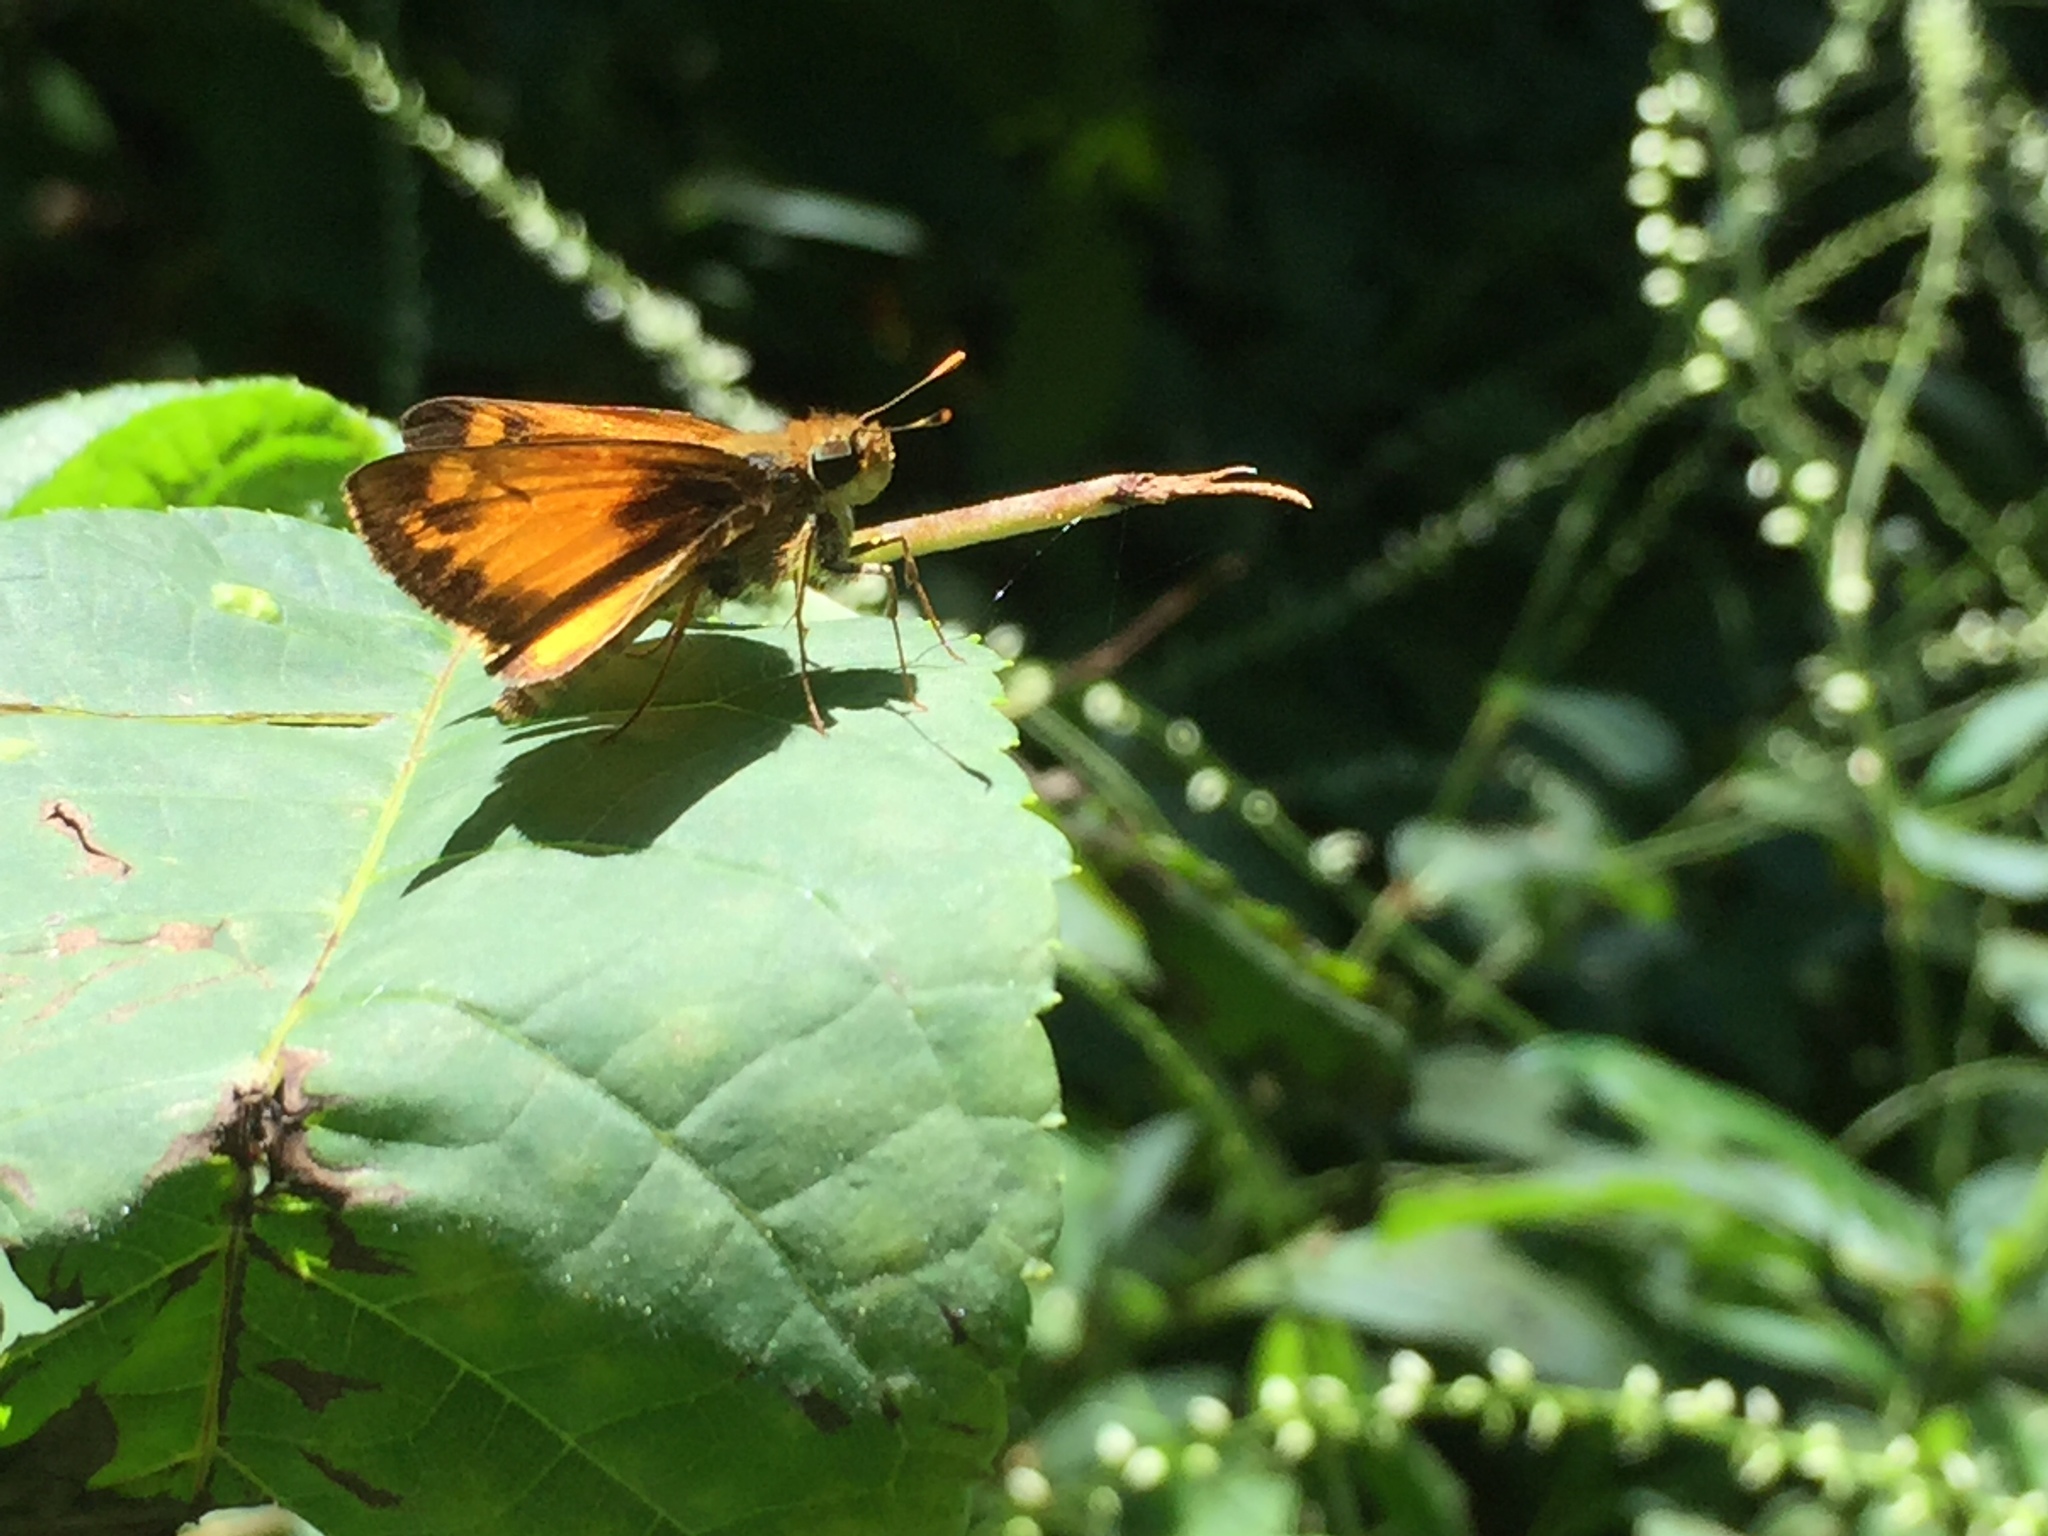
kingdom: Animalia
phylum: Arthropoda
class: Insecta
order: Lepidoptera
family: Hesperiidae
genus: Lon
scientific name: Lon zabulon
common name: Zabulon skipper
